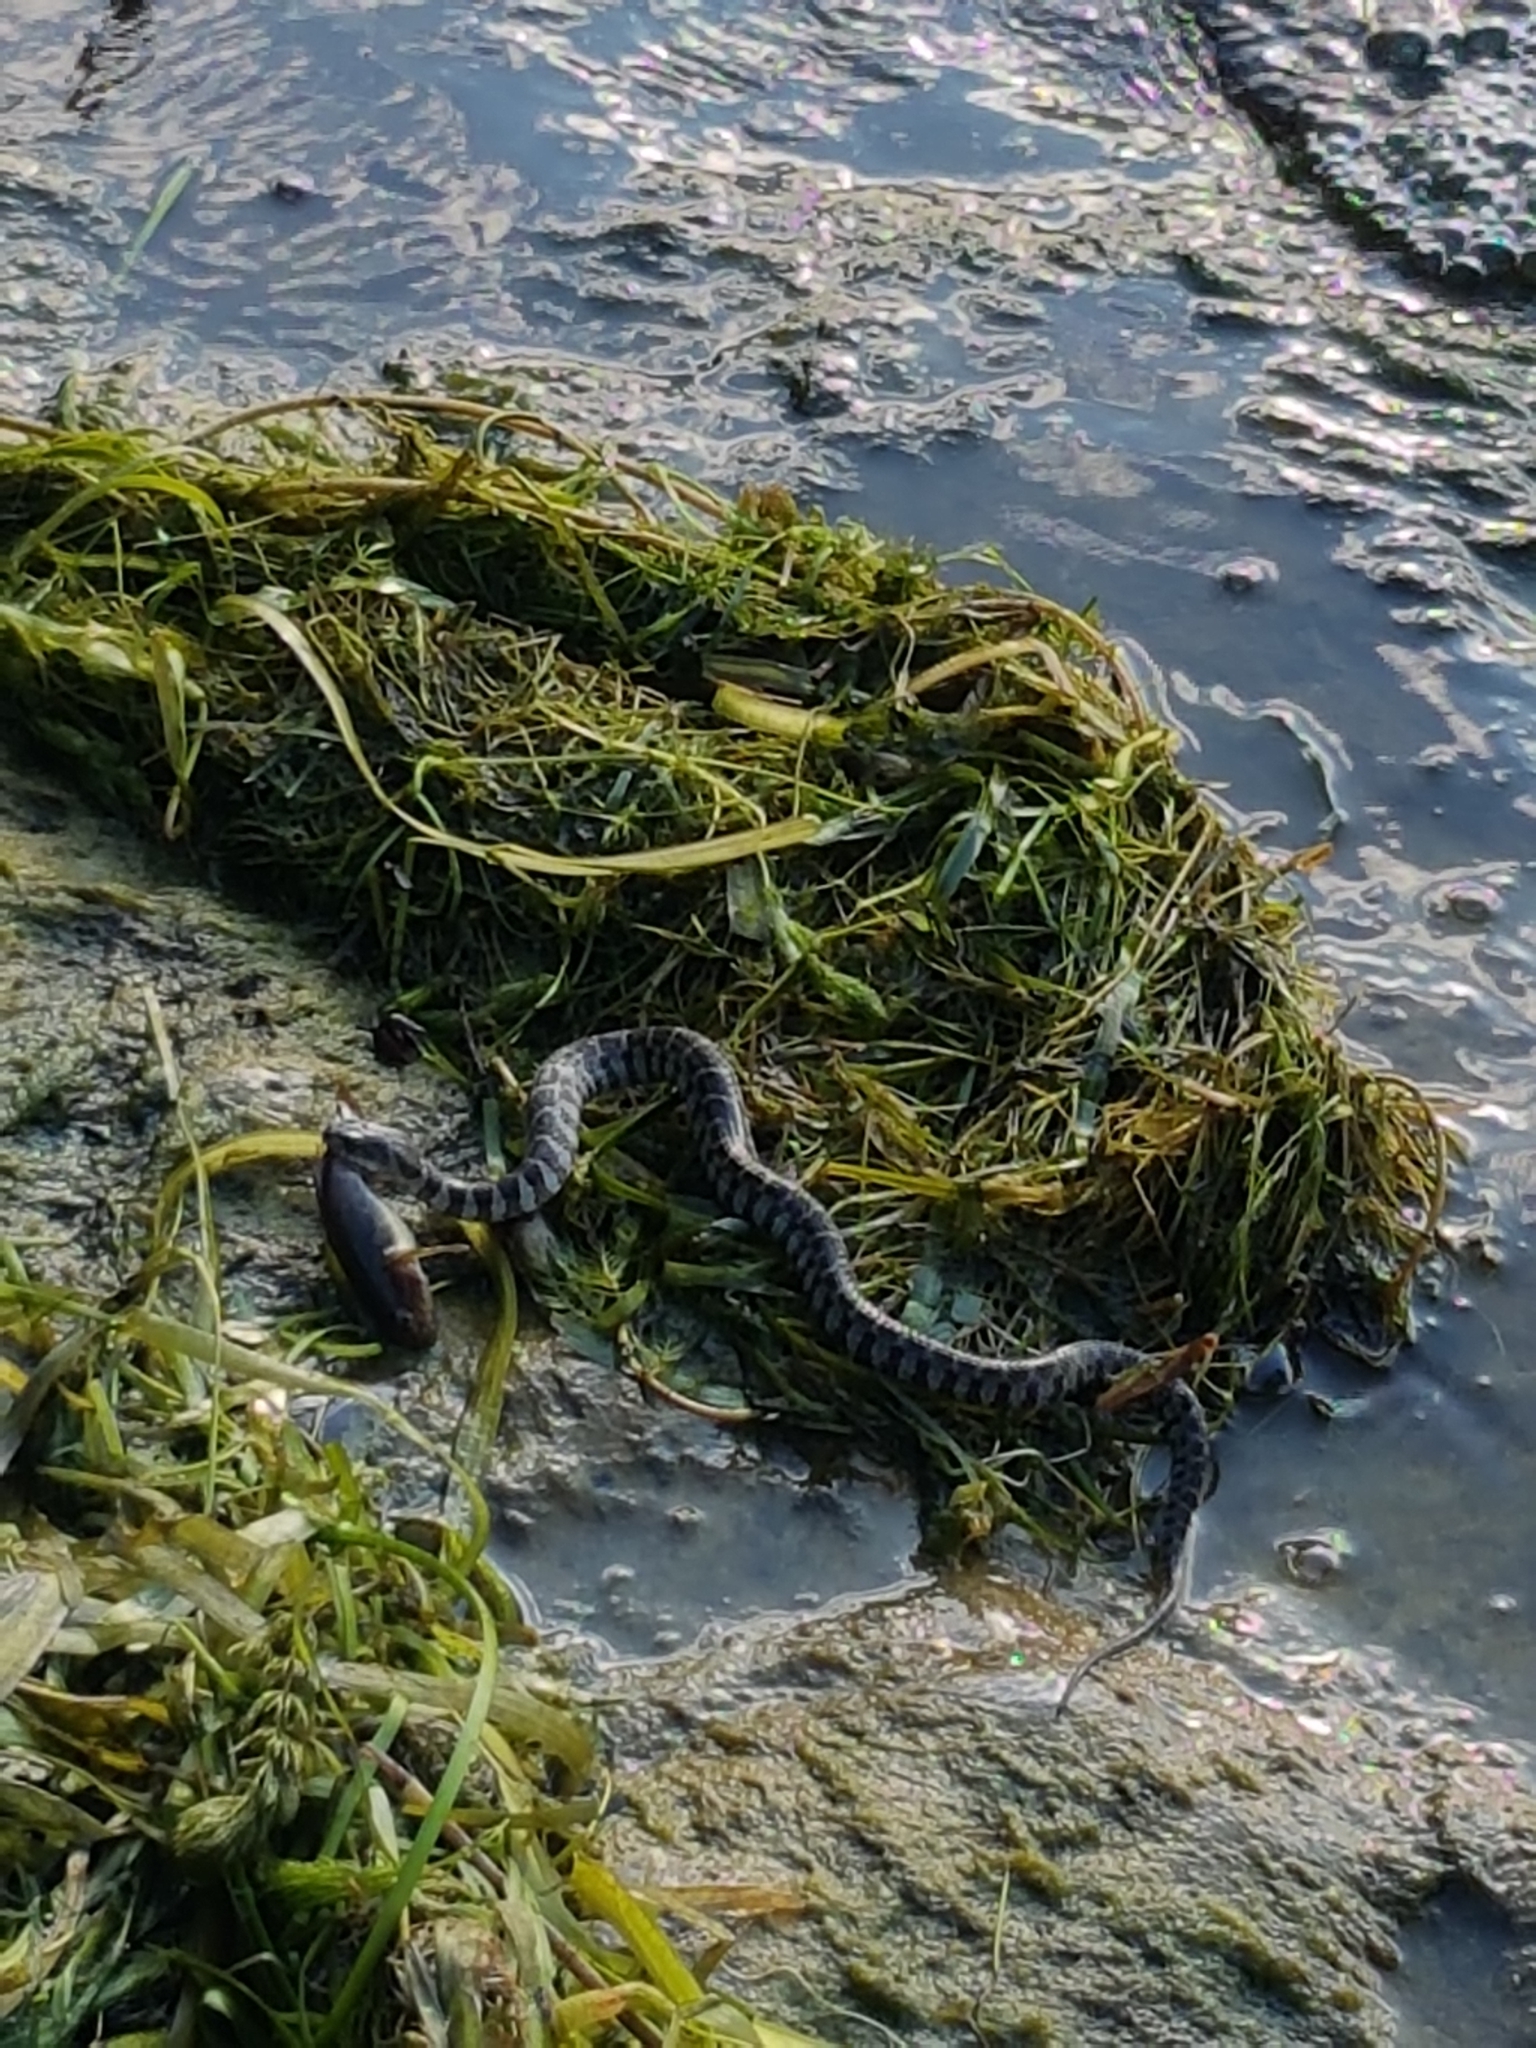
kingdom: Animalia
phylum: Chordata
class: Squamata
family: Colubridae
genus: Nerodia
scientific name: Nerodia sipedon
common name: Northern water snake
